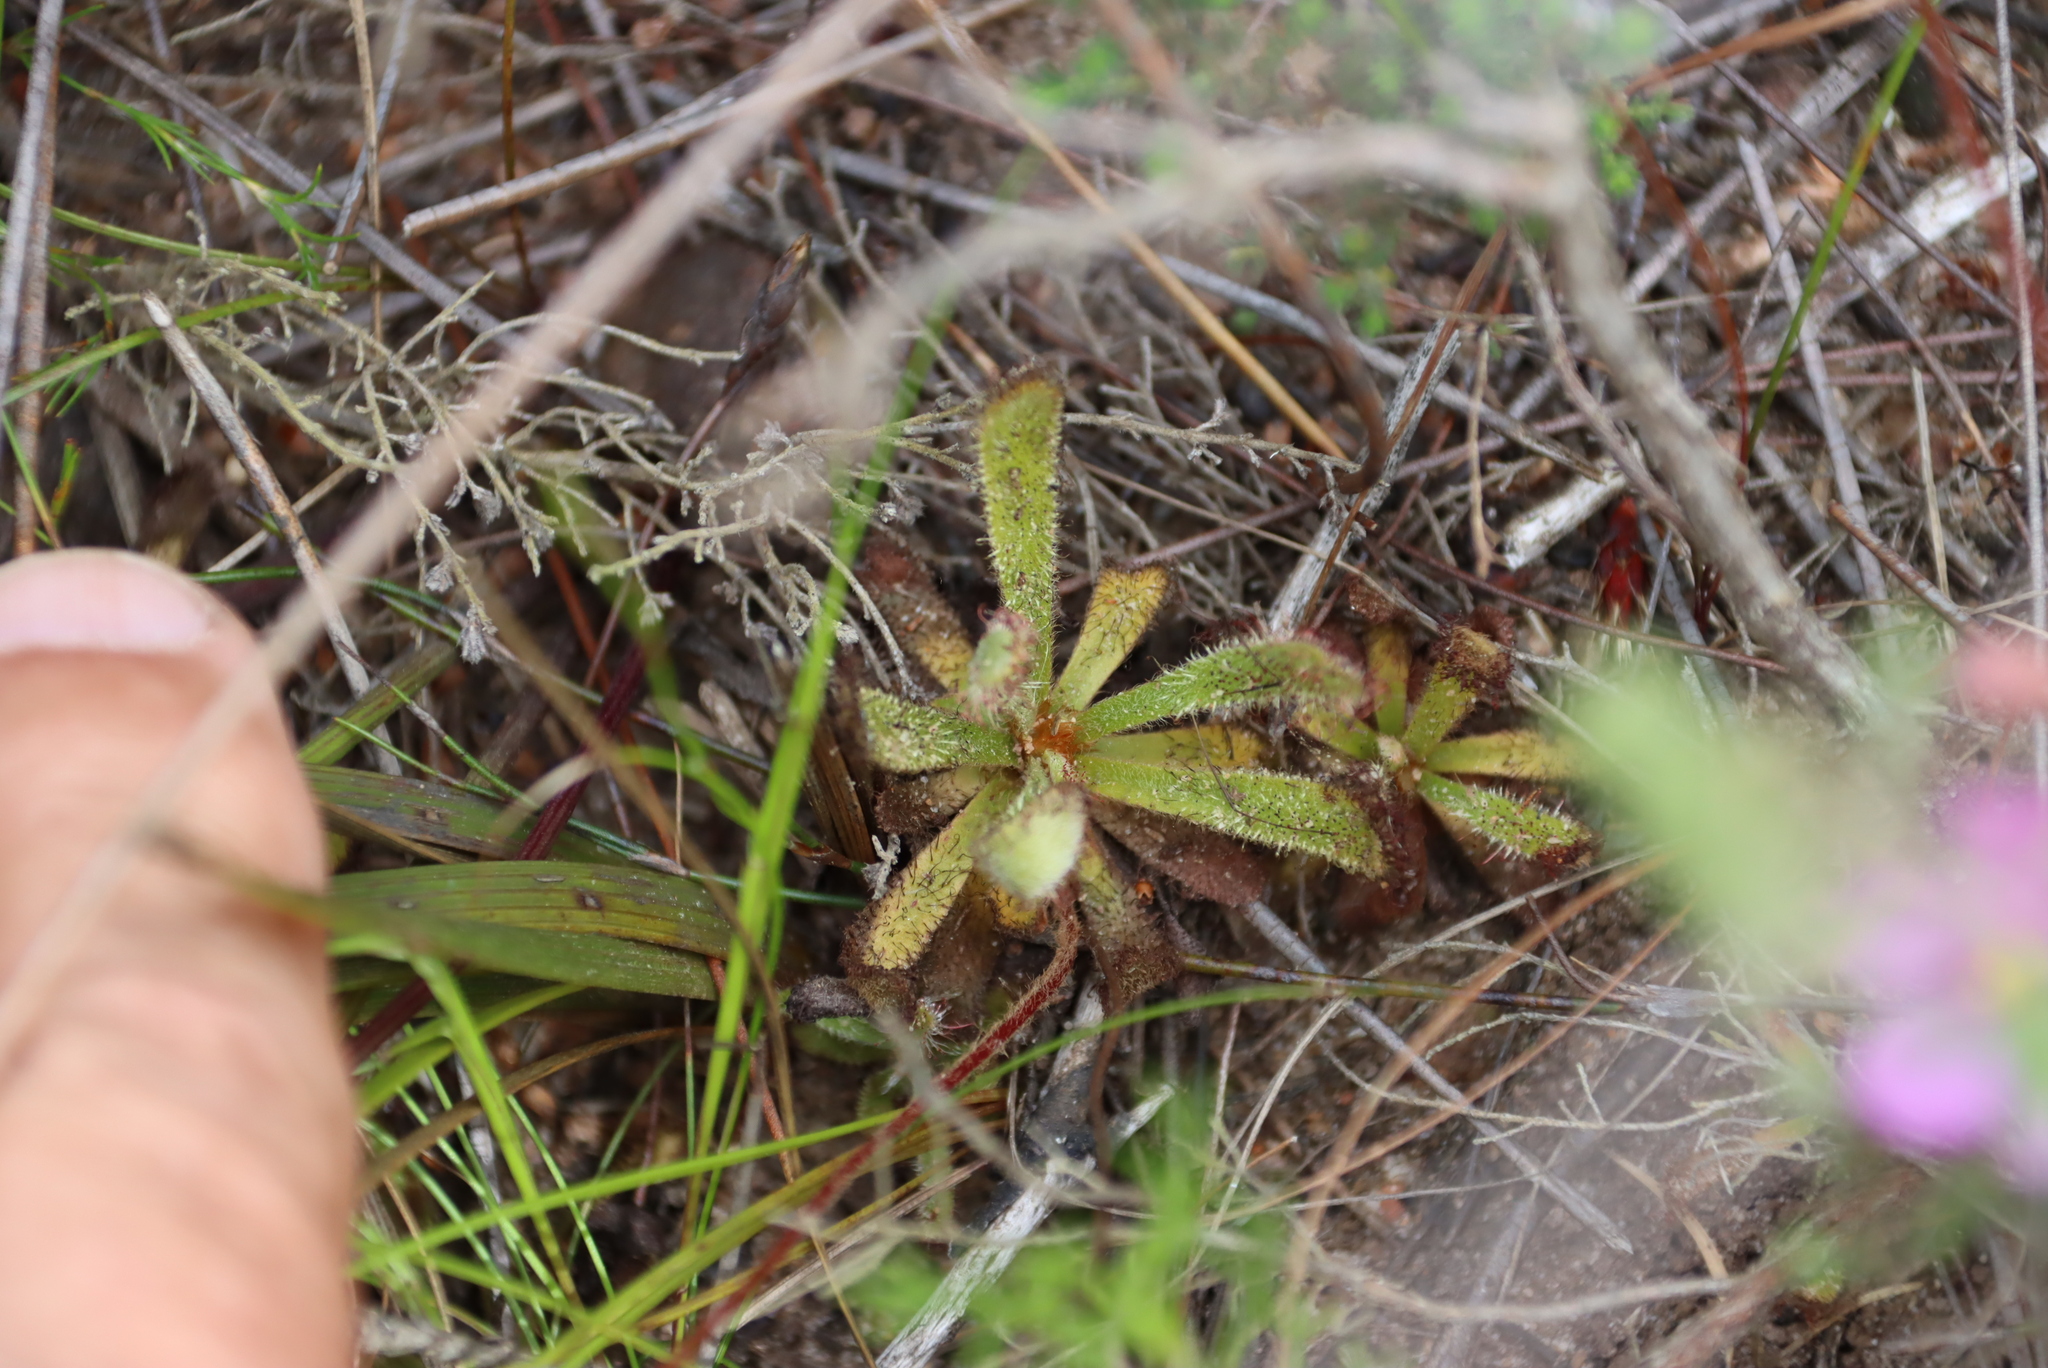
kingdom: Plantae
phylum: Tracheophyta
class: Magnoliopsida
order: Caryophyllales
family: Droseraceae
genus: Drosera
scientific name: Drosera ericgreenii
